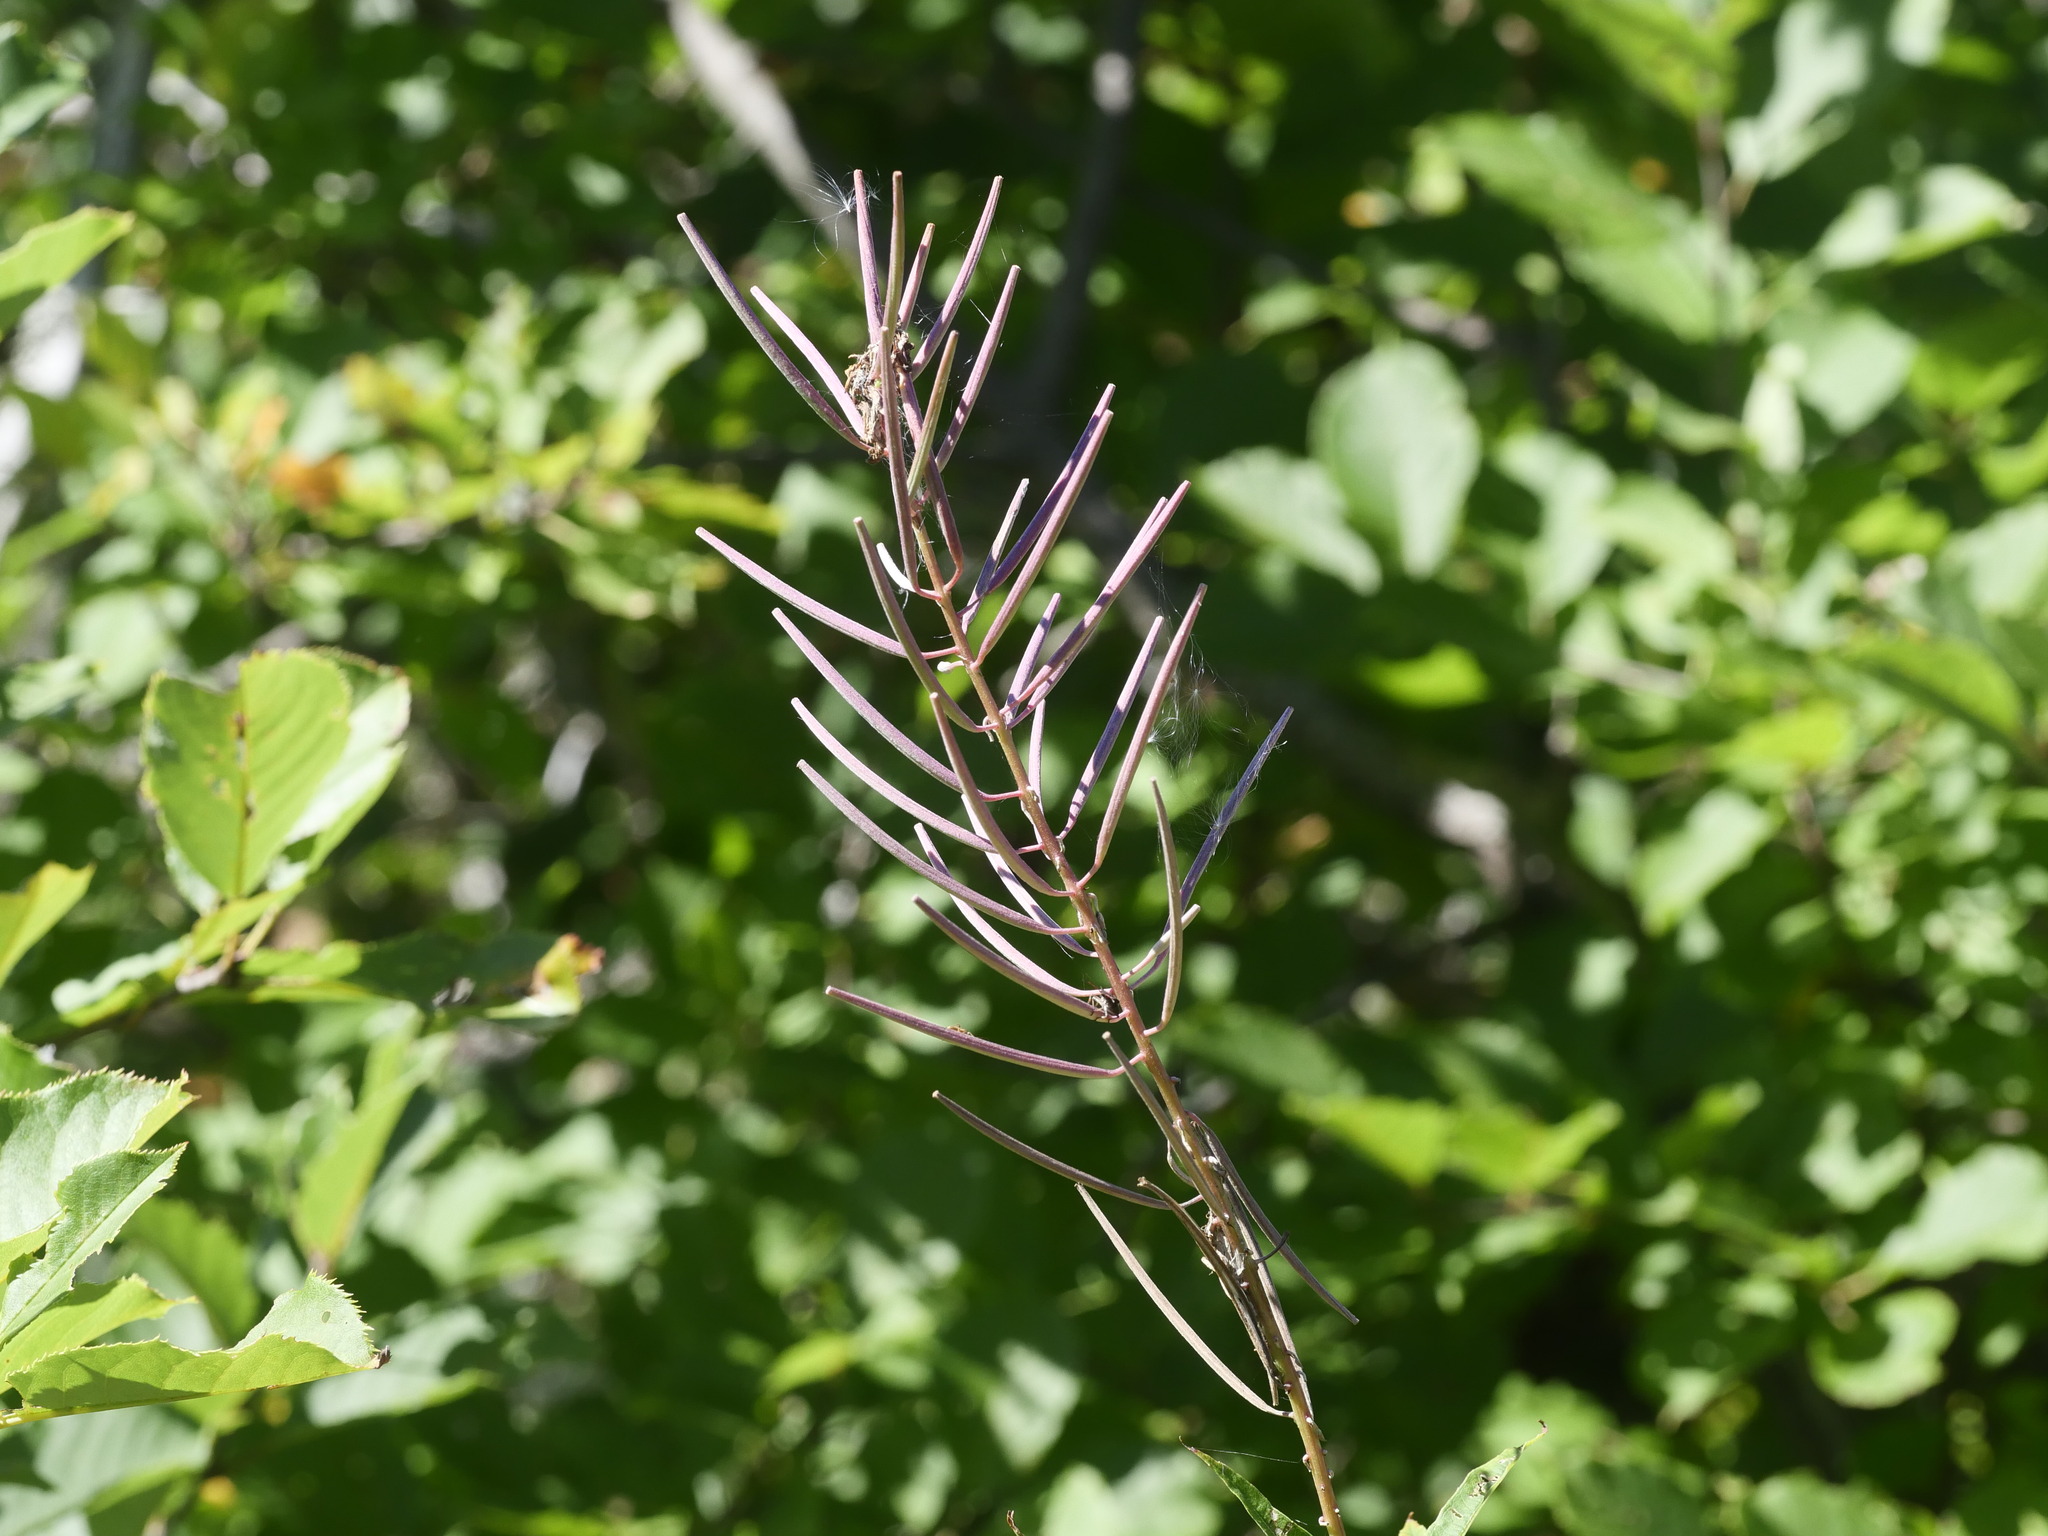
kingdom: Plantae
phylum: Tracheophyta
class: Magnoliopsida
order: Myrtales
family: Onagraceae
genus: Chamaenerion
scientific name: Chamaenerion angustifolium
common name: Fireweed
